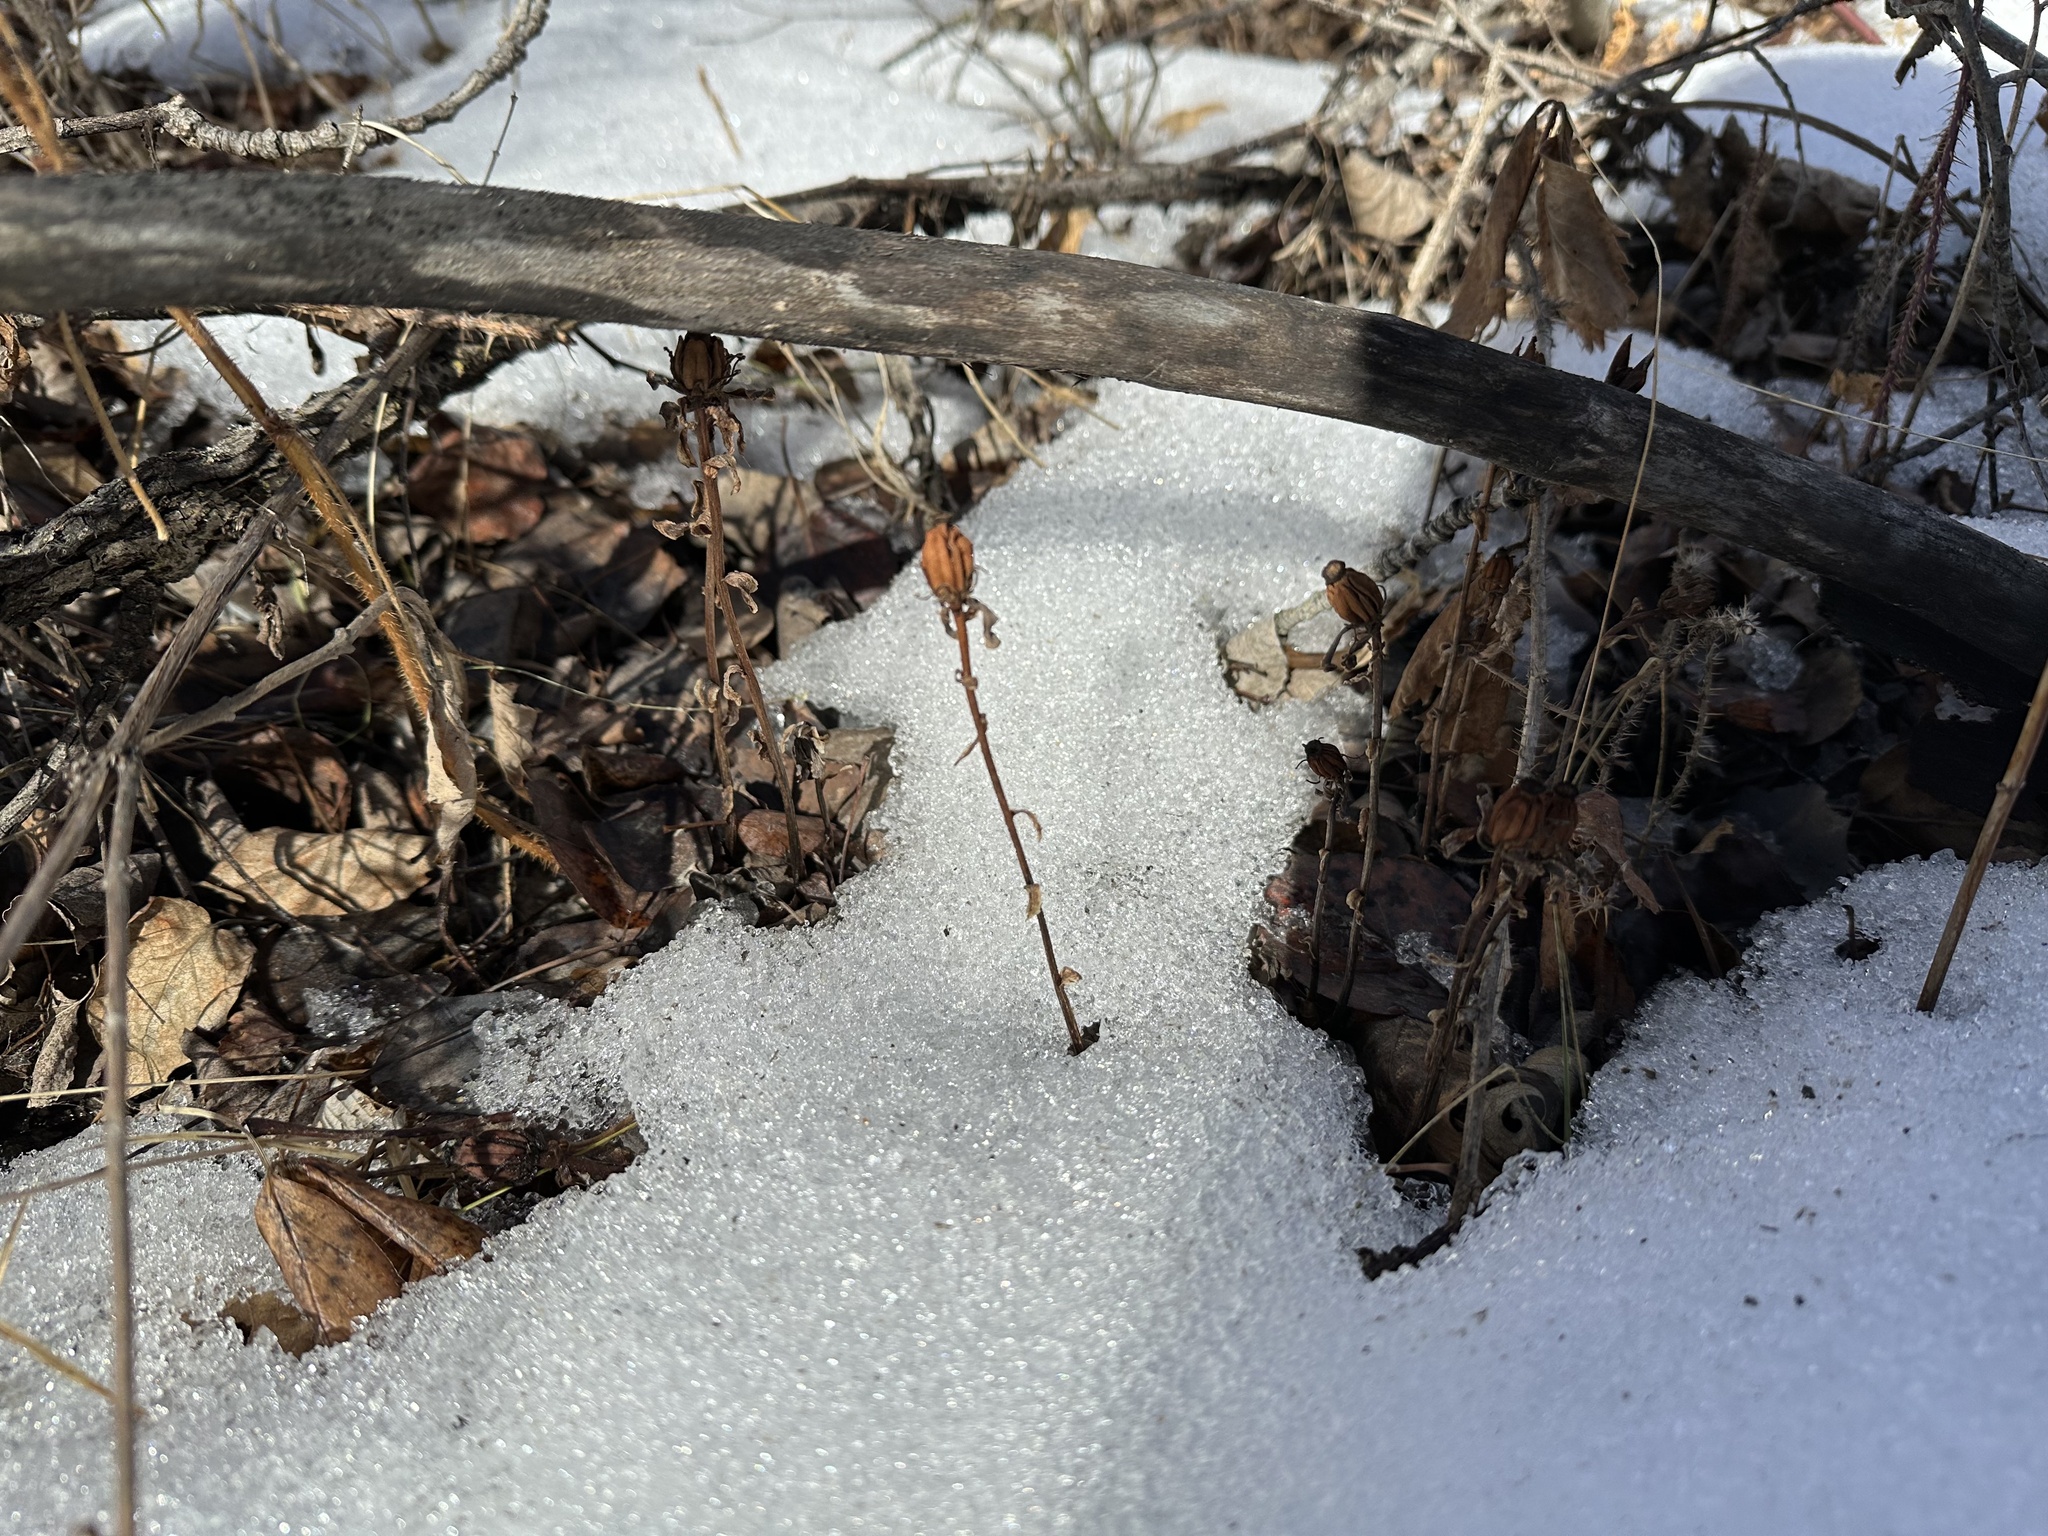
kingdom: Plantae
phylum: Tracheophyta
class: Magnoliopsida
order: Ericales
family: Ericaceae
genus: Monotropa
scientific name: Monotropa uniflora
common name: Convulsion root
